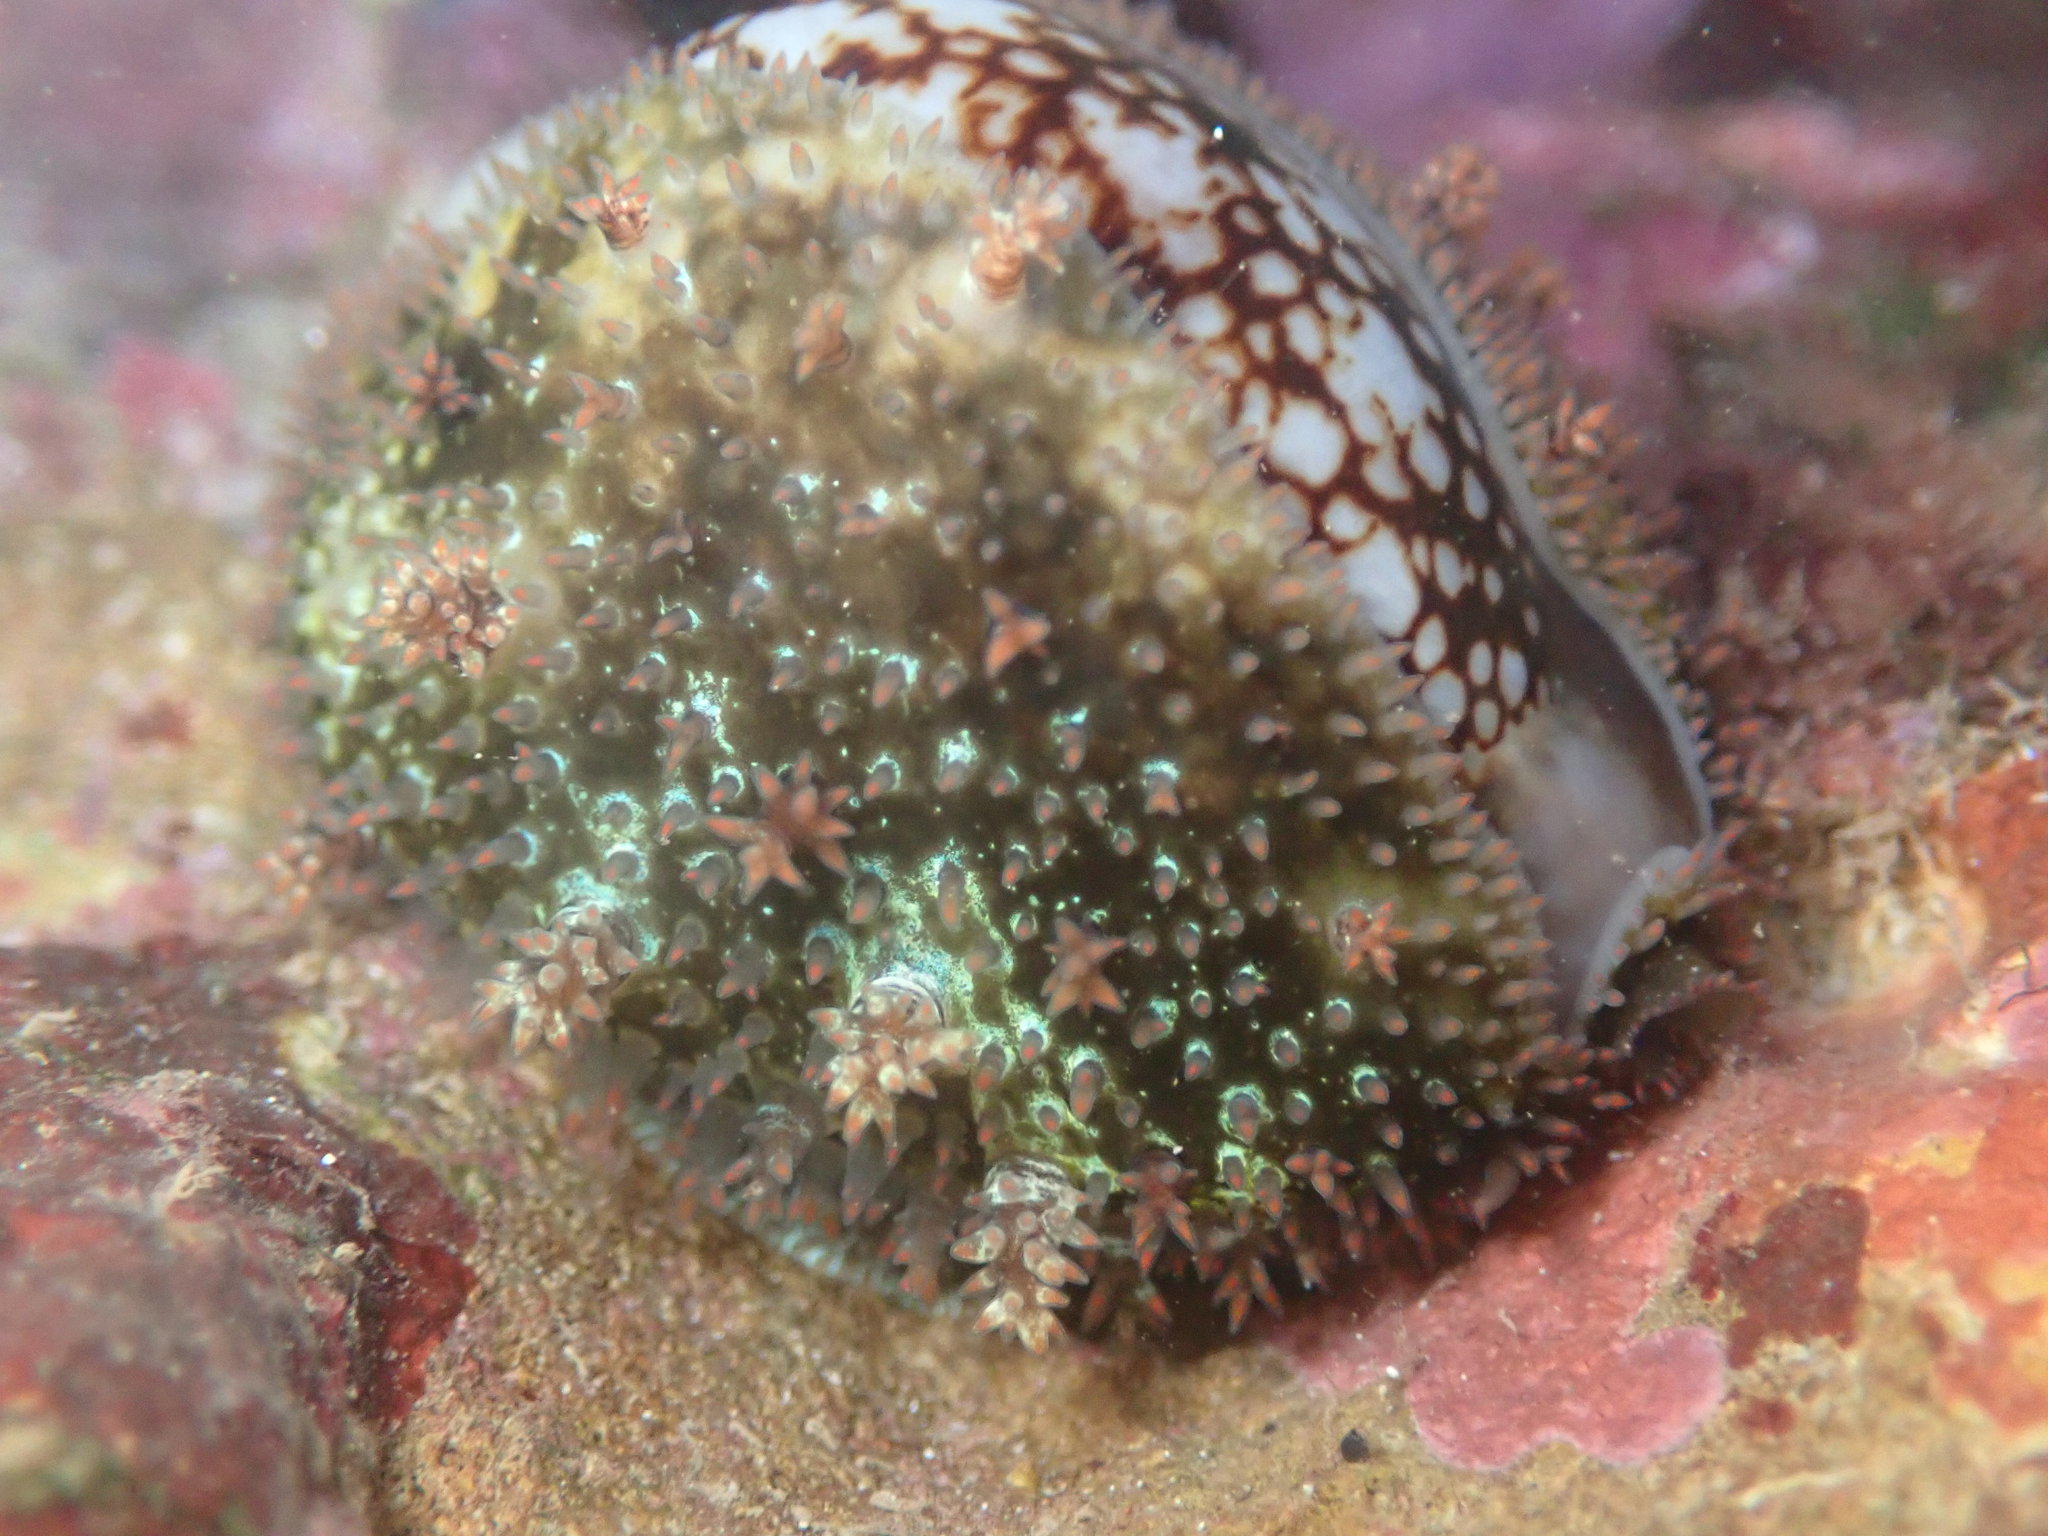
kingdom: Animalia
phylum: Mollusca
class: Gastropoda
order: Littorinimorpha
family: Cypraeidae
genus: Monetaria
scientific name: Monetaria caputophidii
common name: Snake's head cowry
